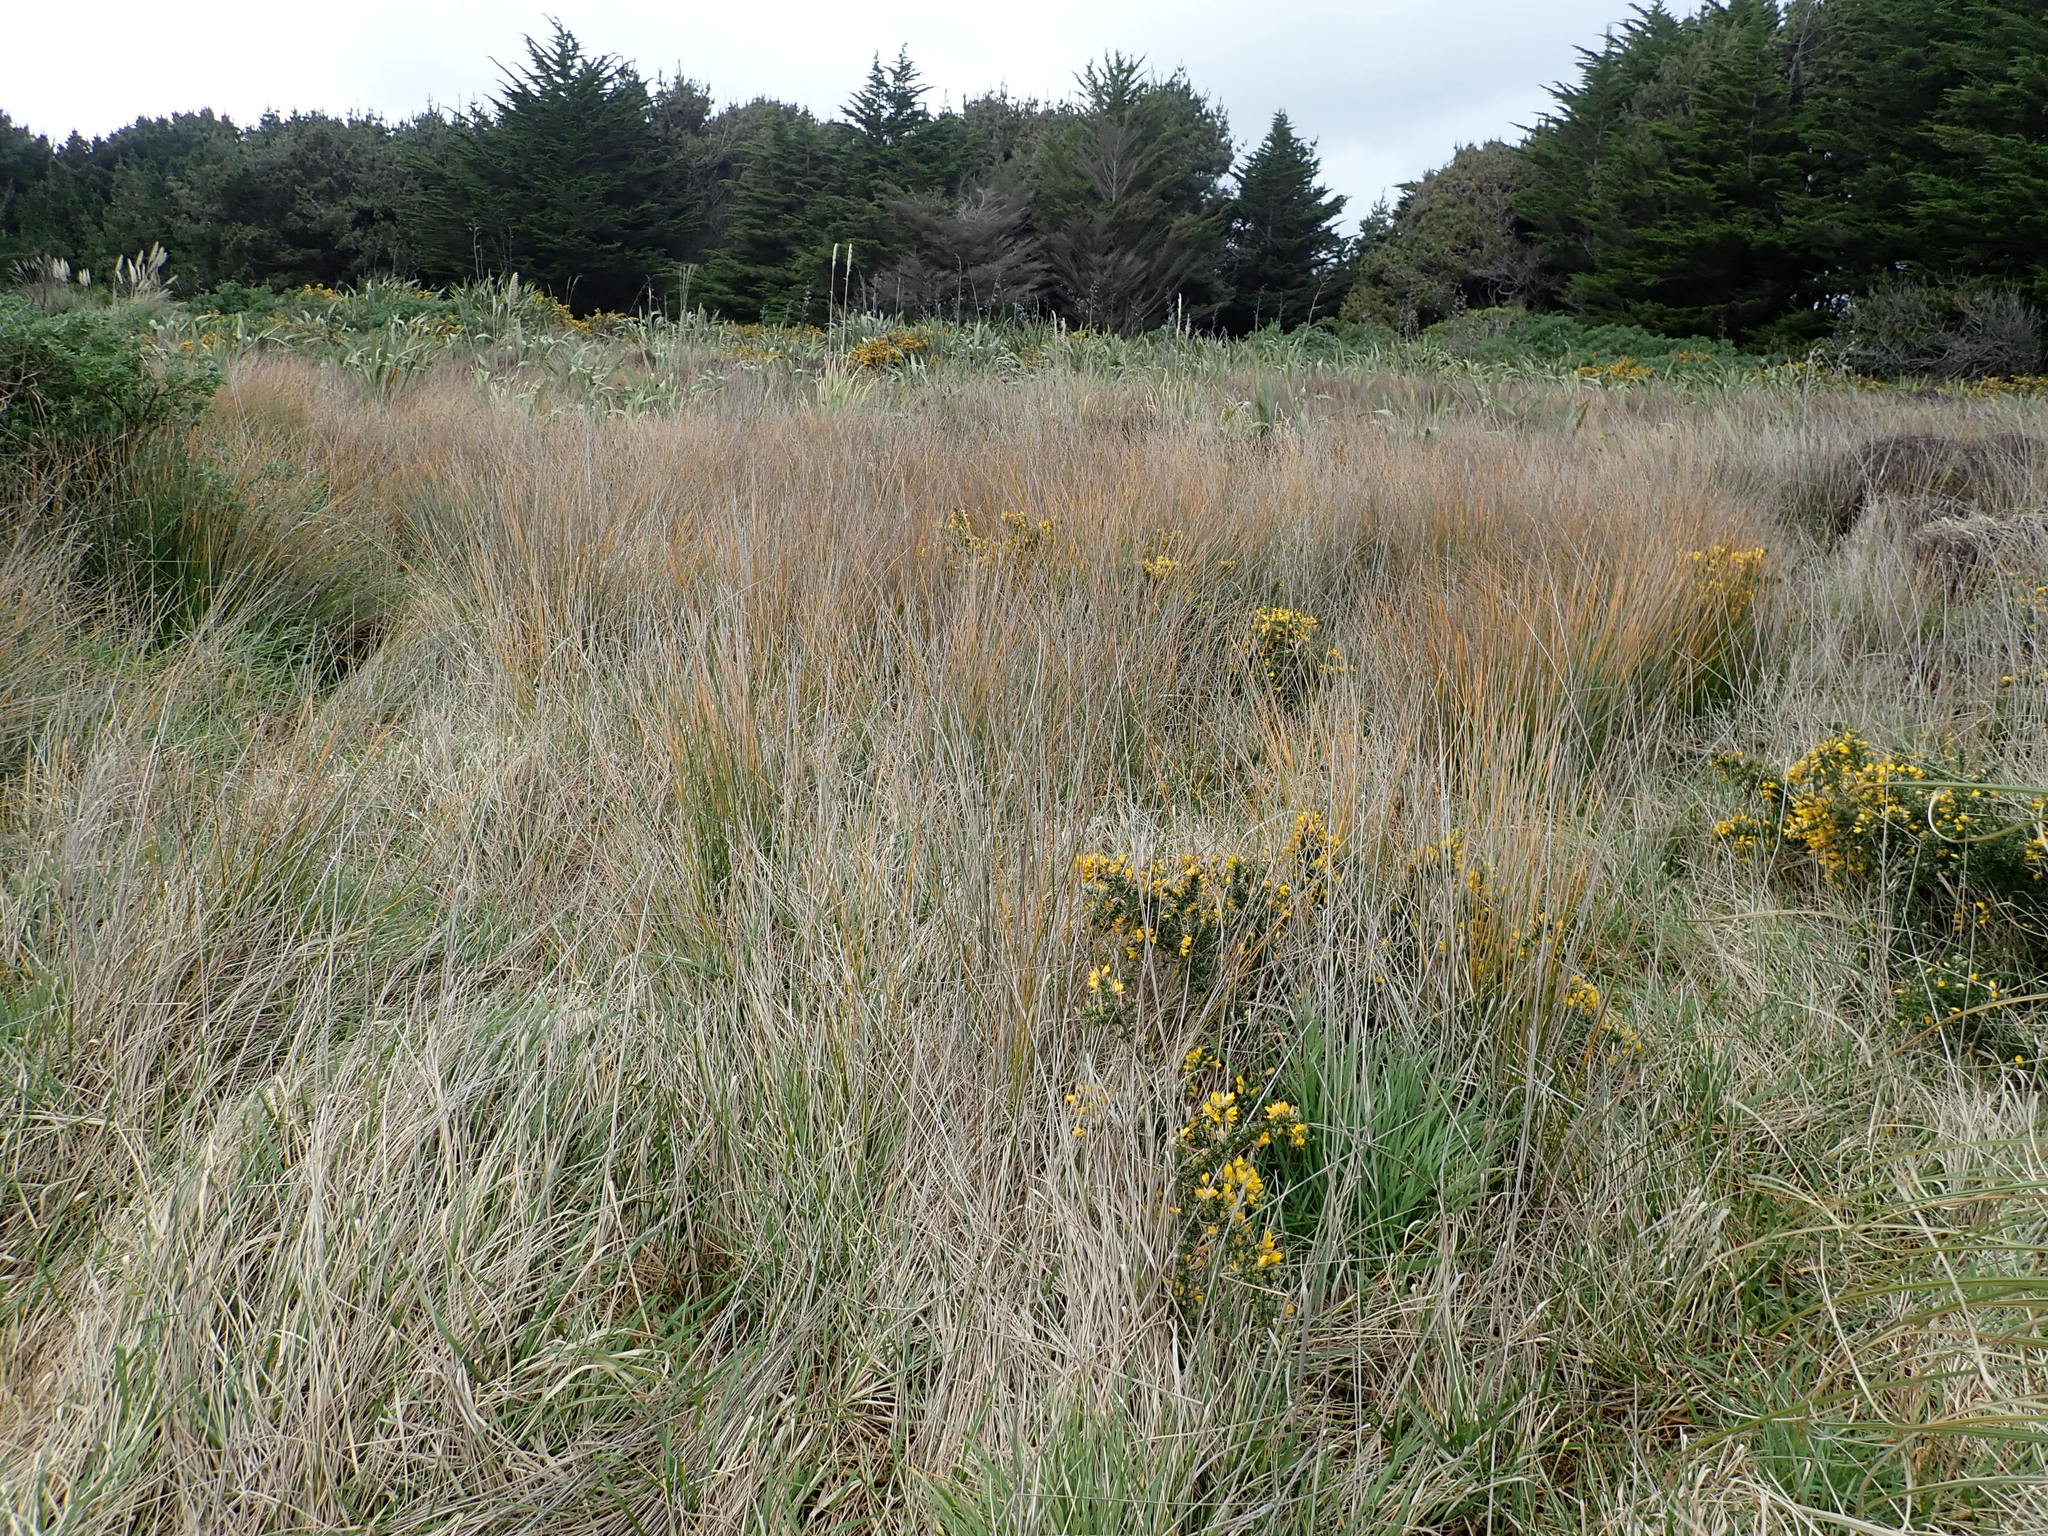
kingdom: Plantae
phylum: Tracheophyta
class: Magnoliopsida
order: Fabales
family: Fabaceae
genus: Ulex
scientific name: Ulex europaeus
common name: Common gorse
